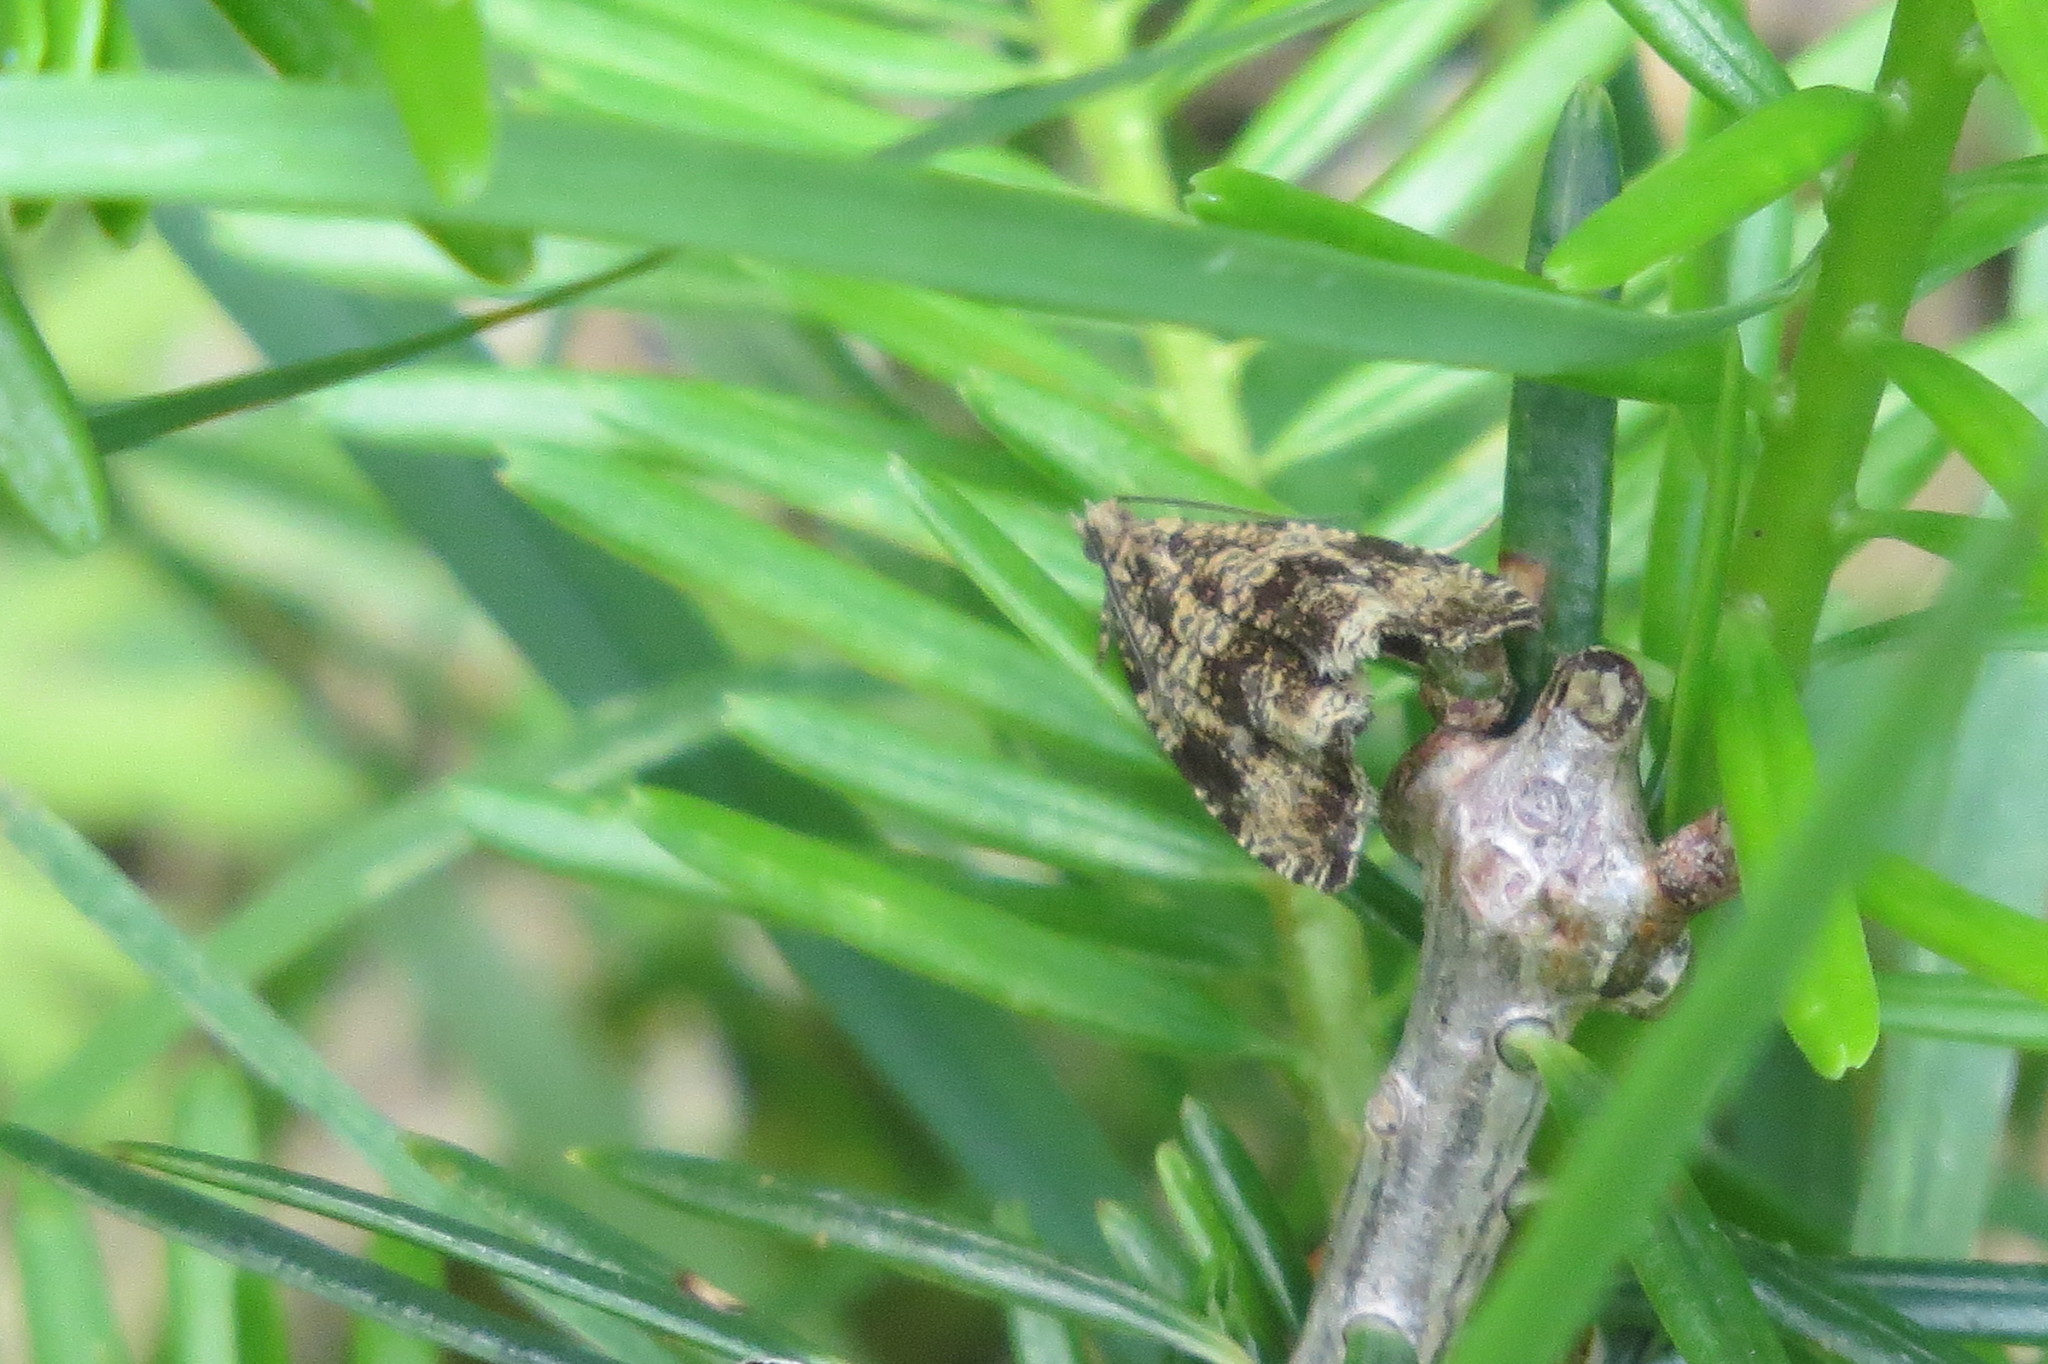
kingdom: Animalia
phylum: Arthropoda
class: Insecta
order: Lepidoptera
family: Tortricidae
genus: Syricoris
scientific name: Syricoris lacunana
